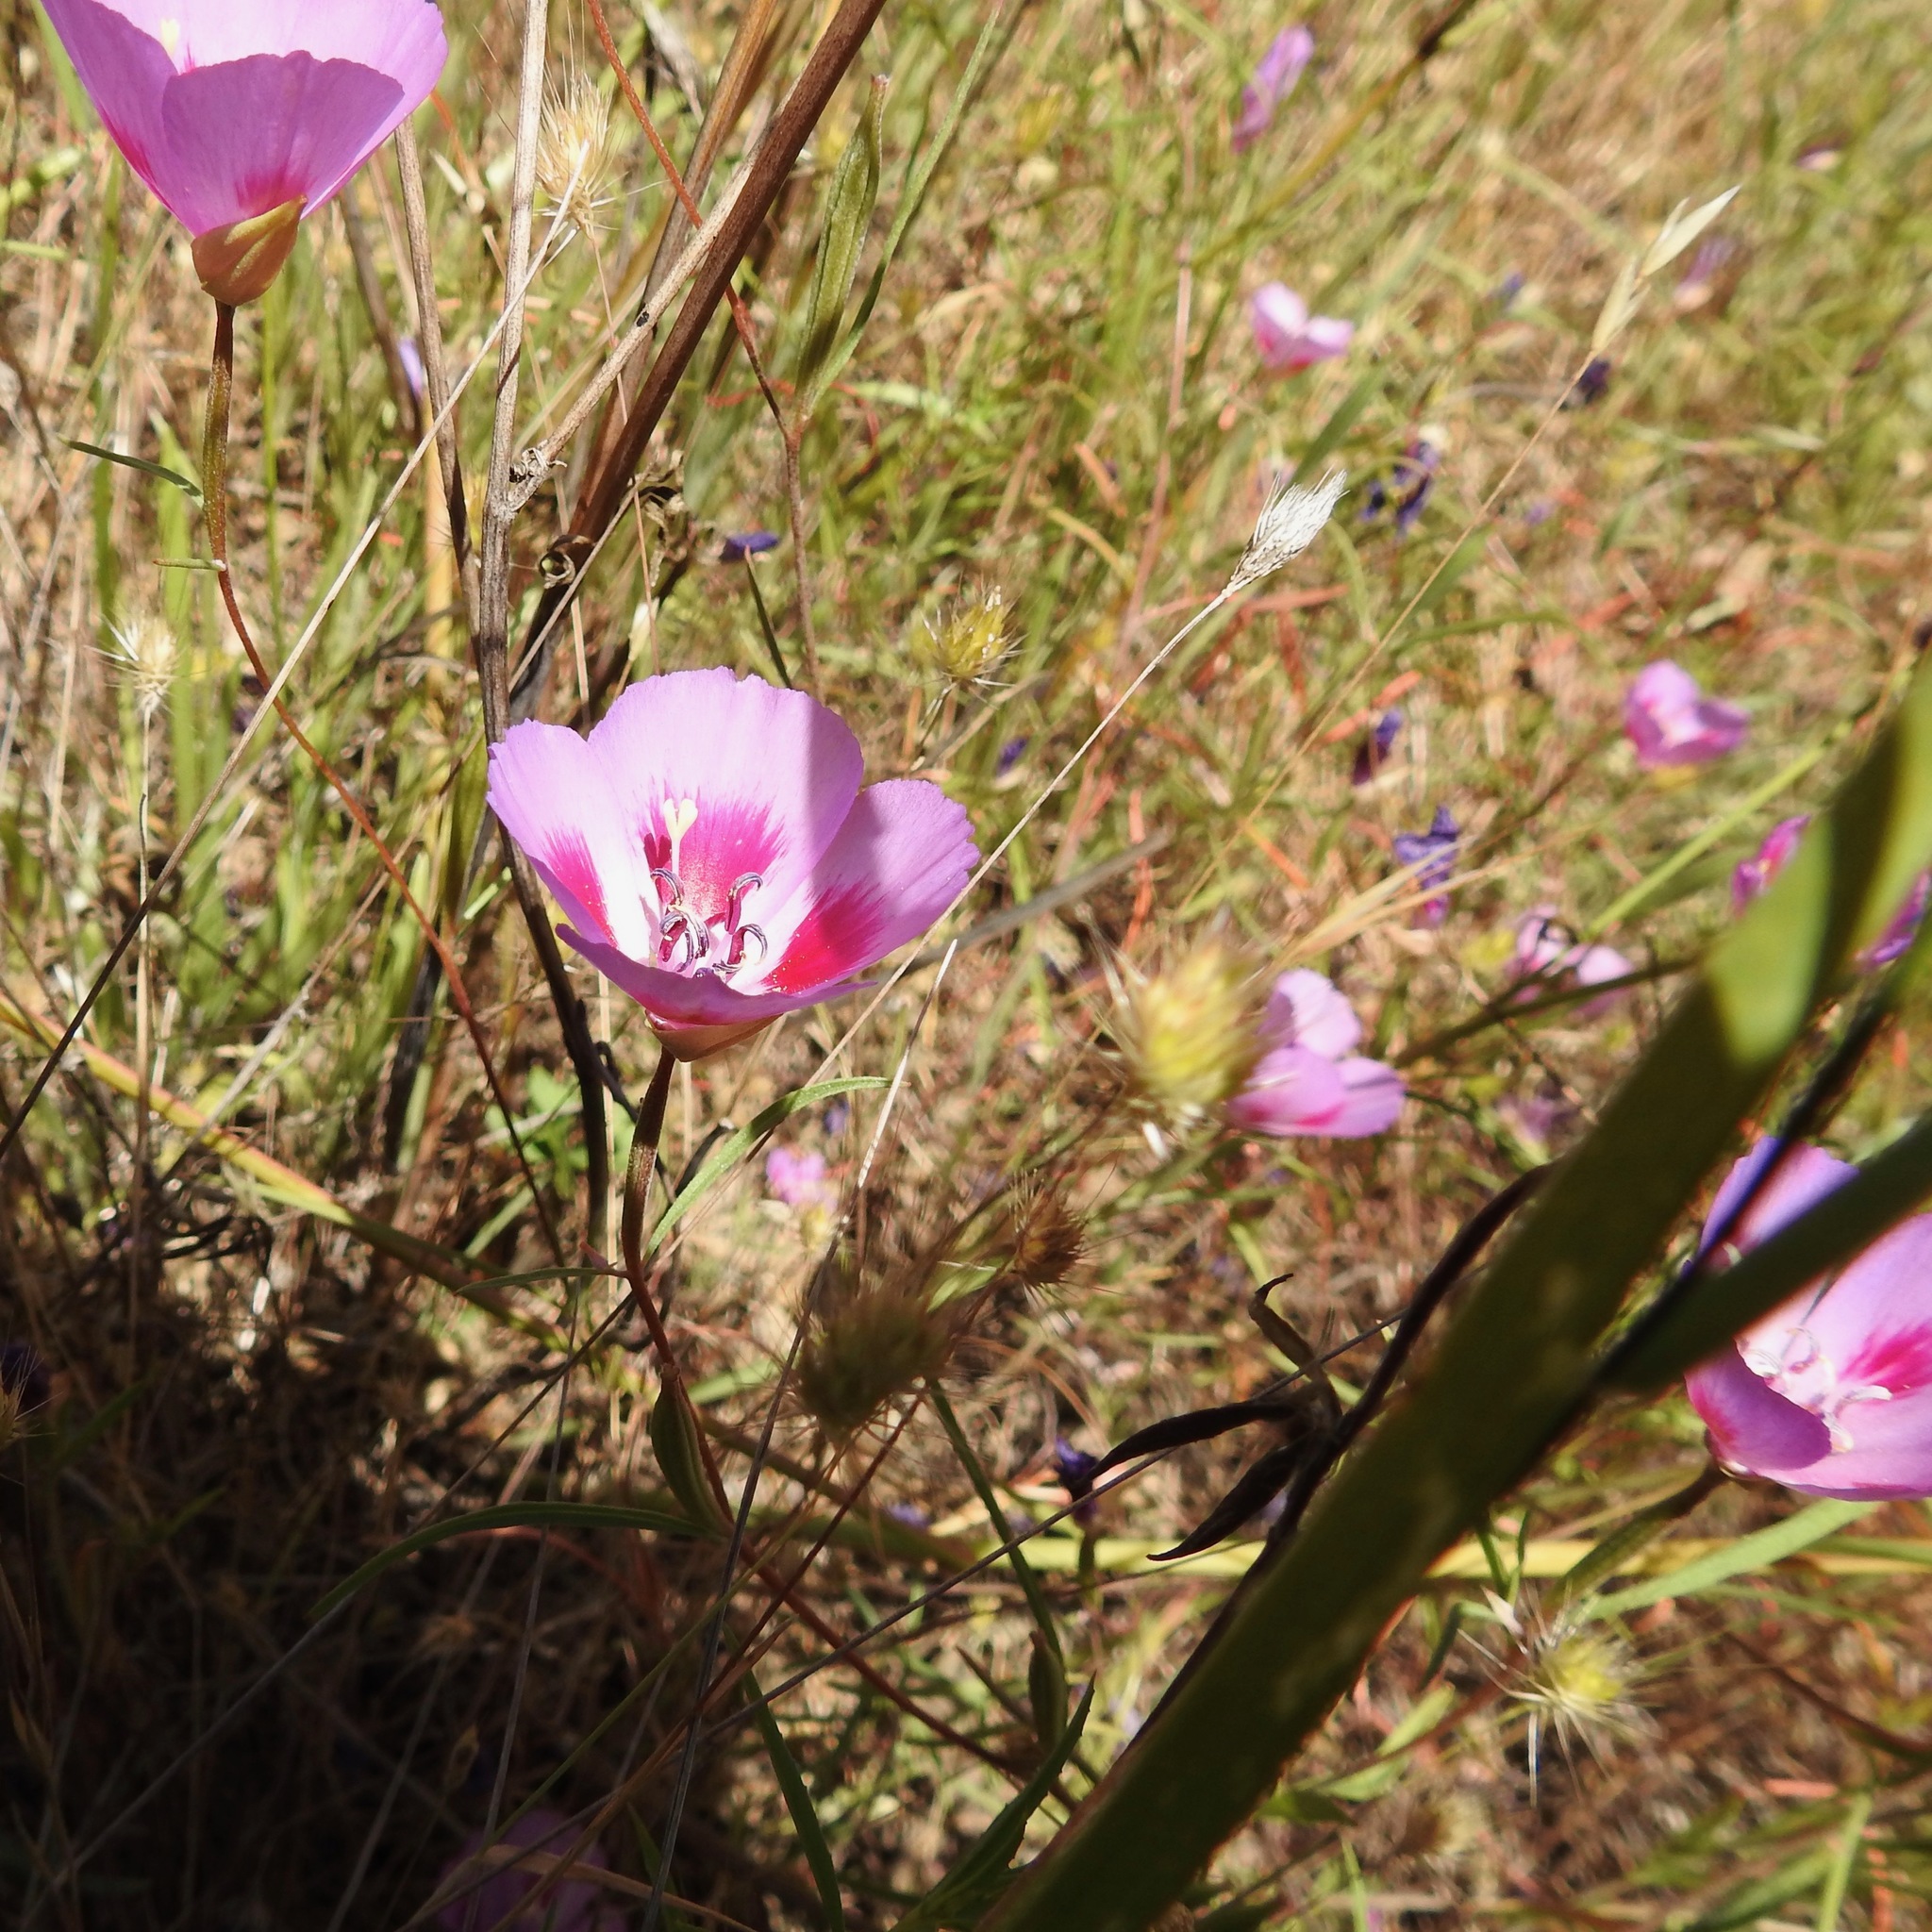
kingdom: Plantae
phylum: Tracheophyta
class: Magnoliopsida
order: Myrtales
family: Onagraceae
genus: Clarkia
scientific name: Clarkia amoena
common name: Godetia
